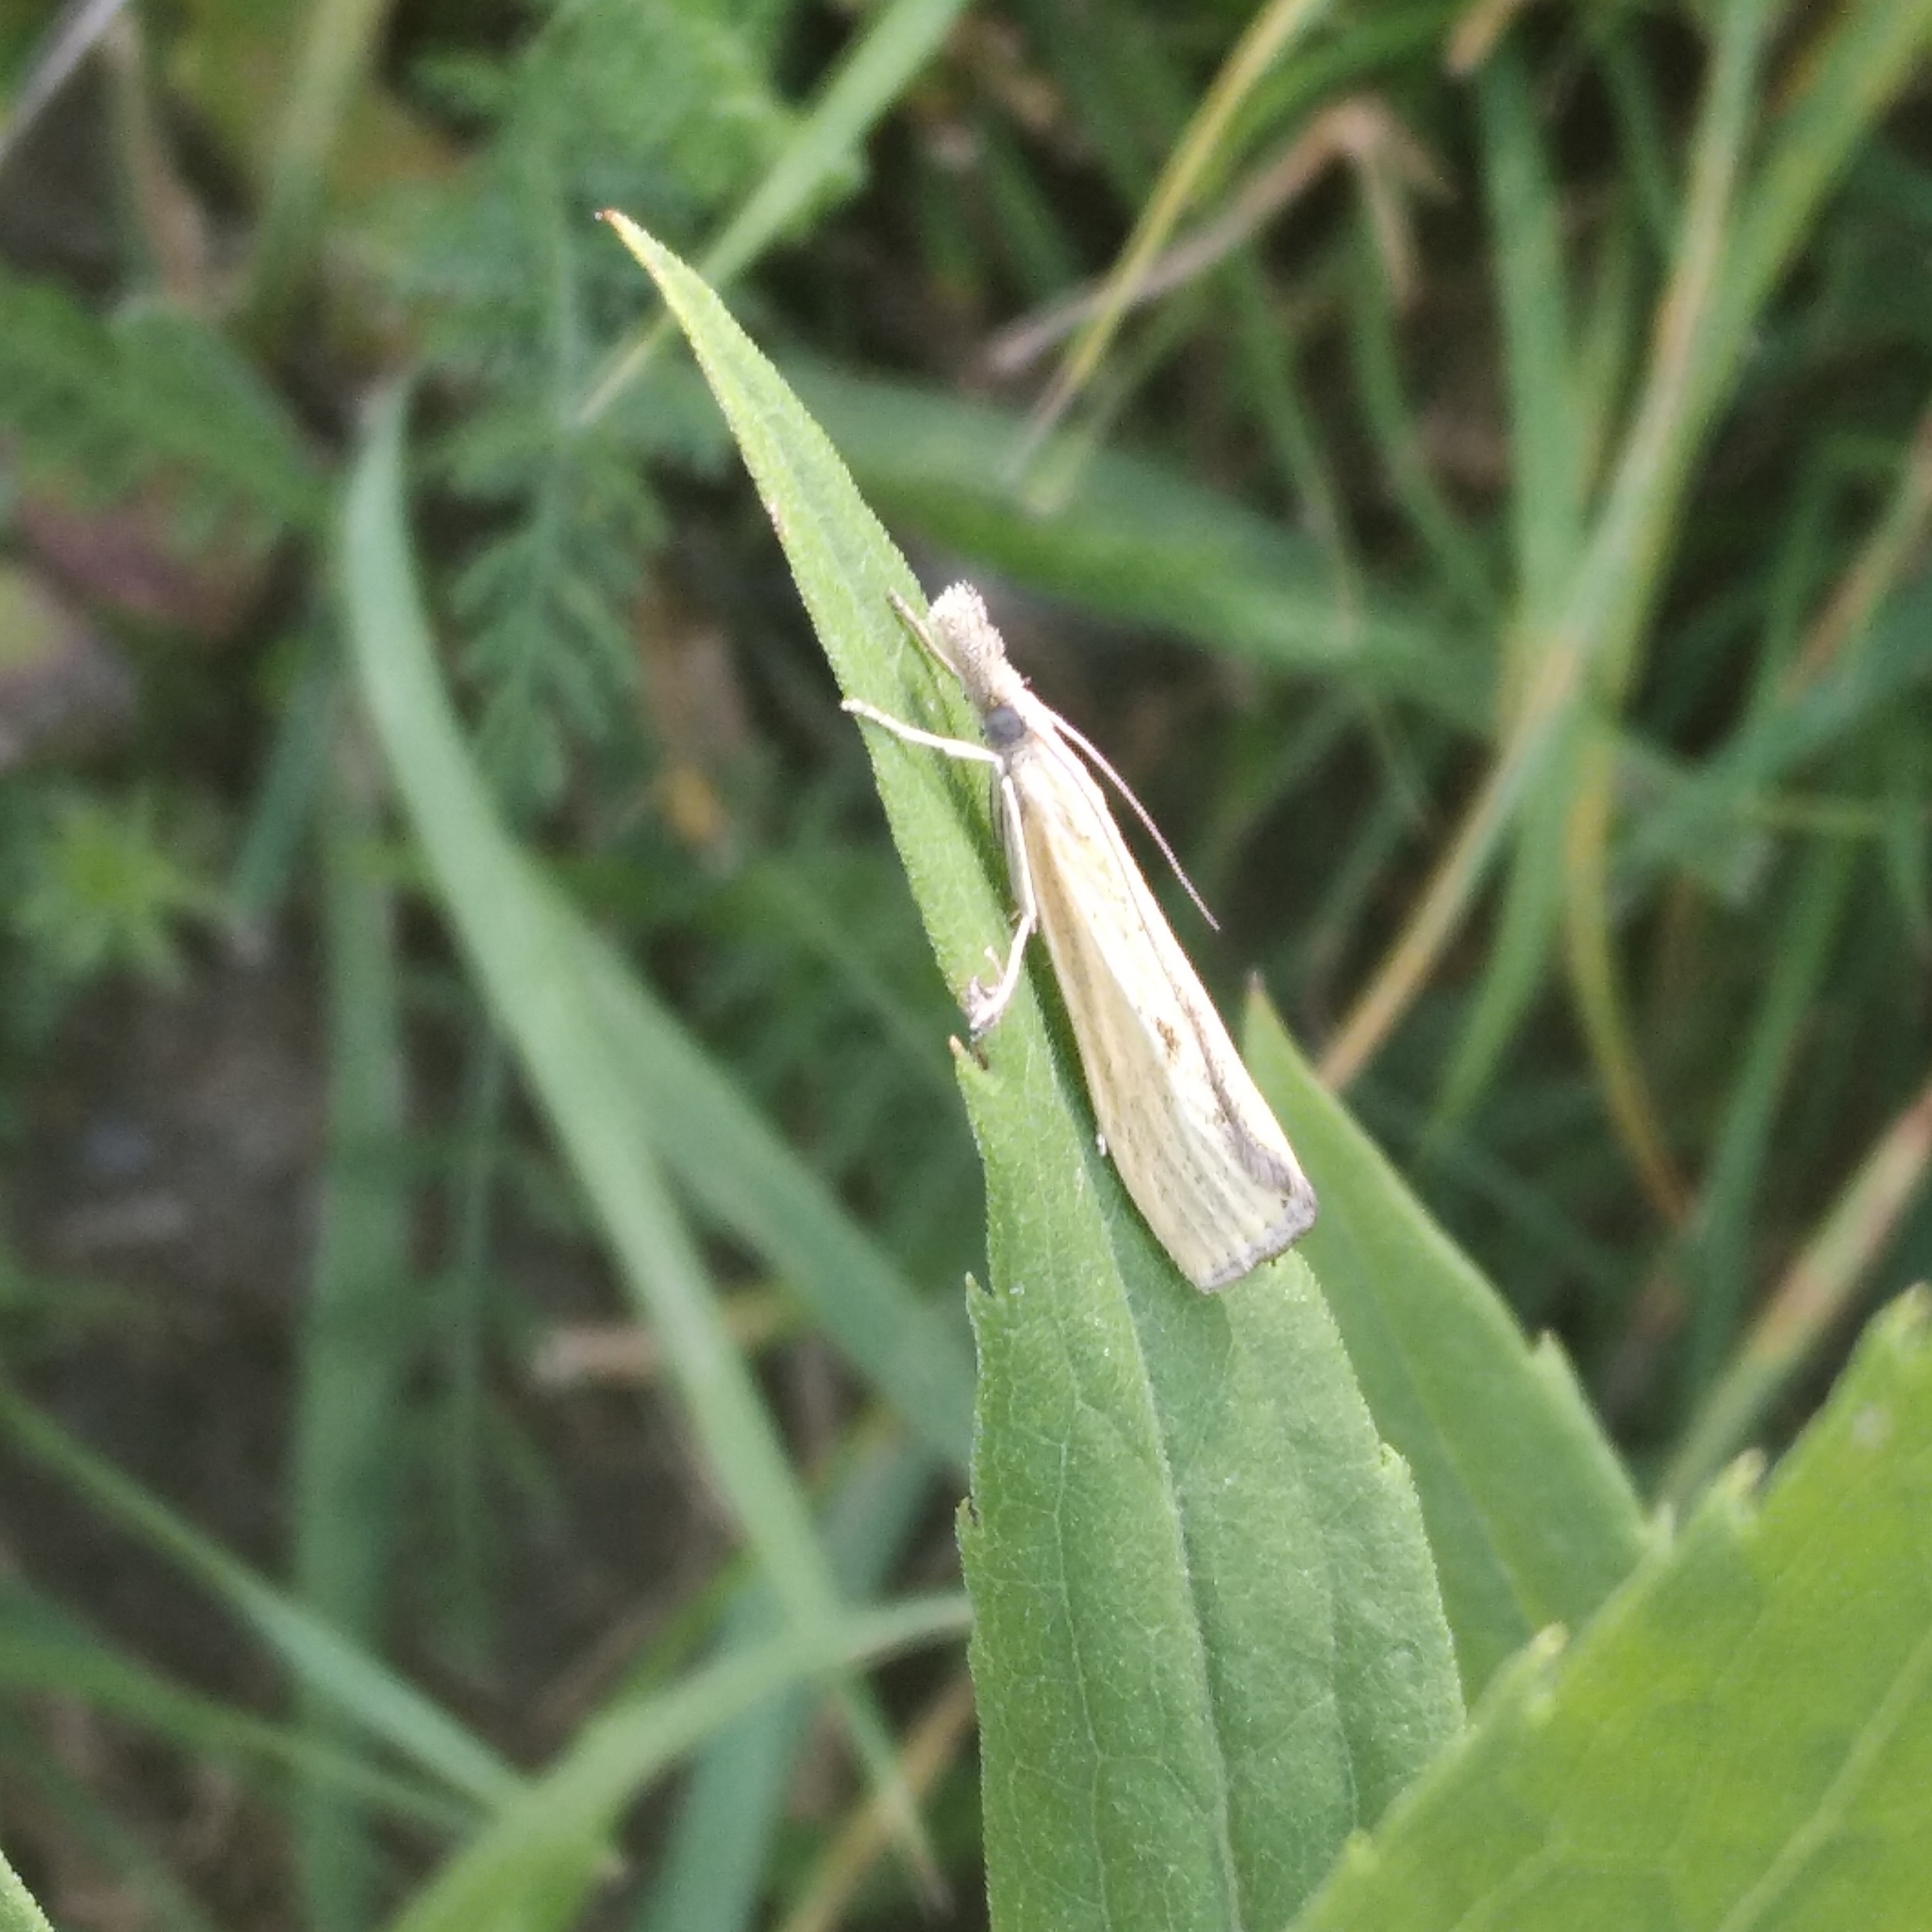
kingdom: Animalia
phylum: Arthropoda
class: Insecta
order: Lepidoptera
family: Crambidae
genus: Agriphila
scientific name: Agriphila inquinatella
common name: Barred grass-veneer
